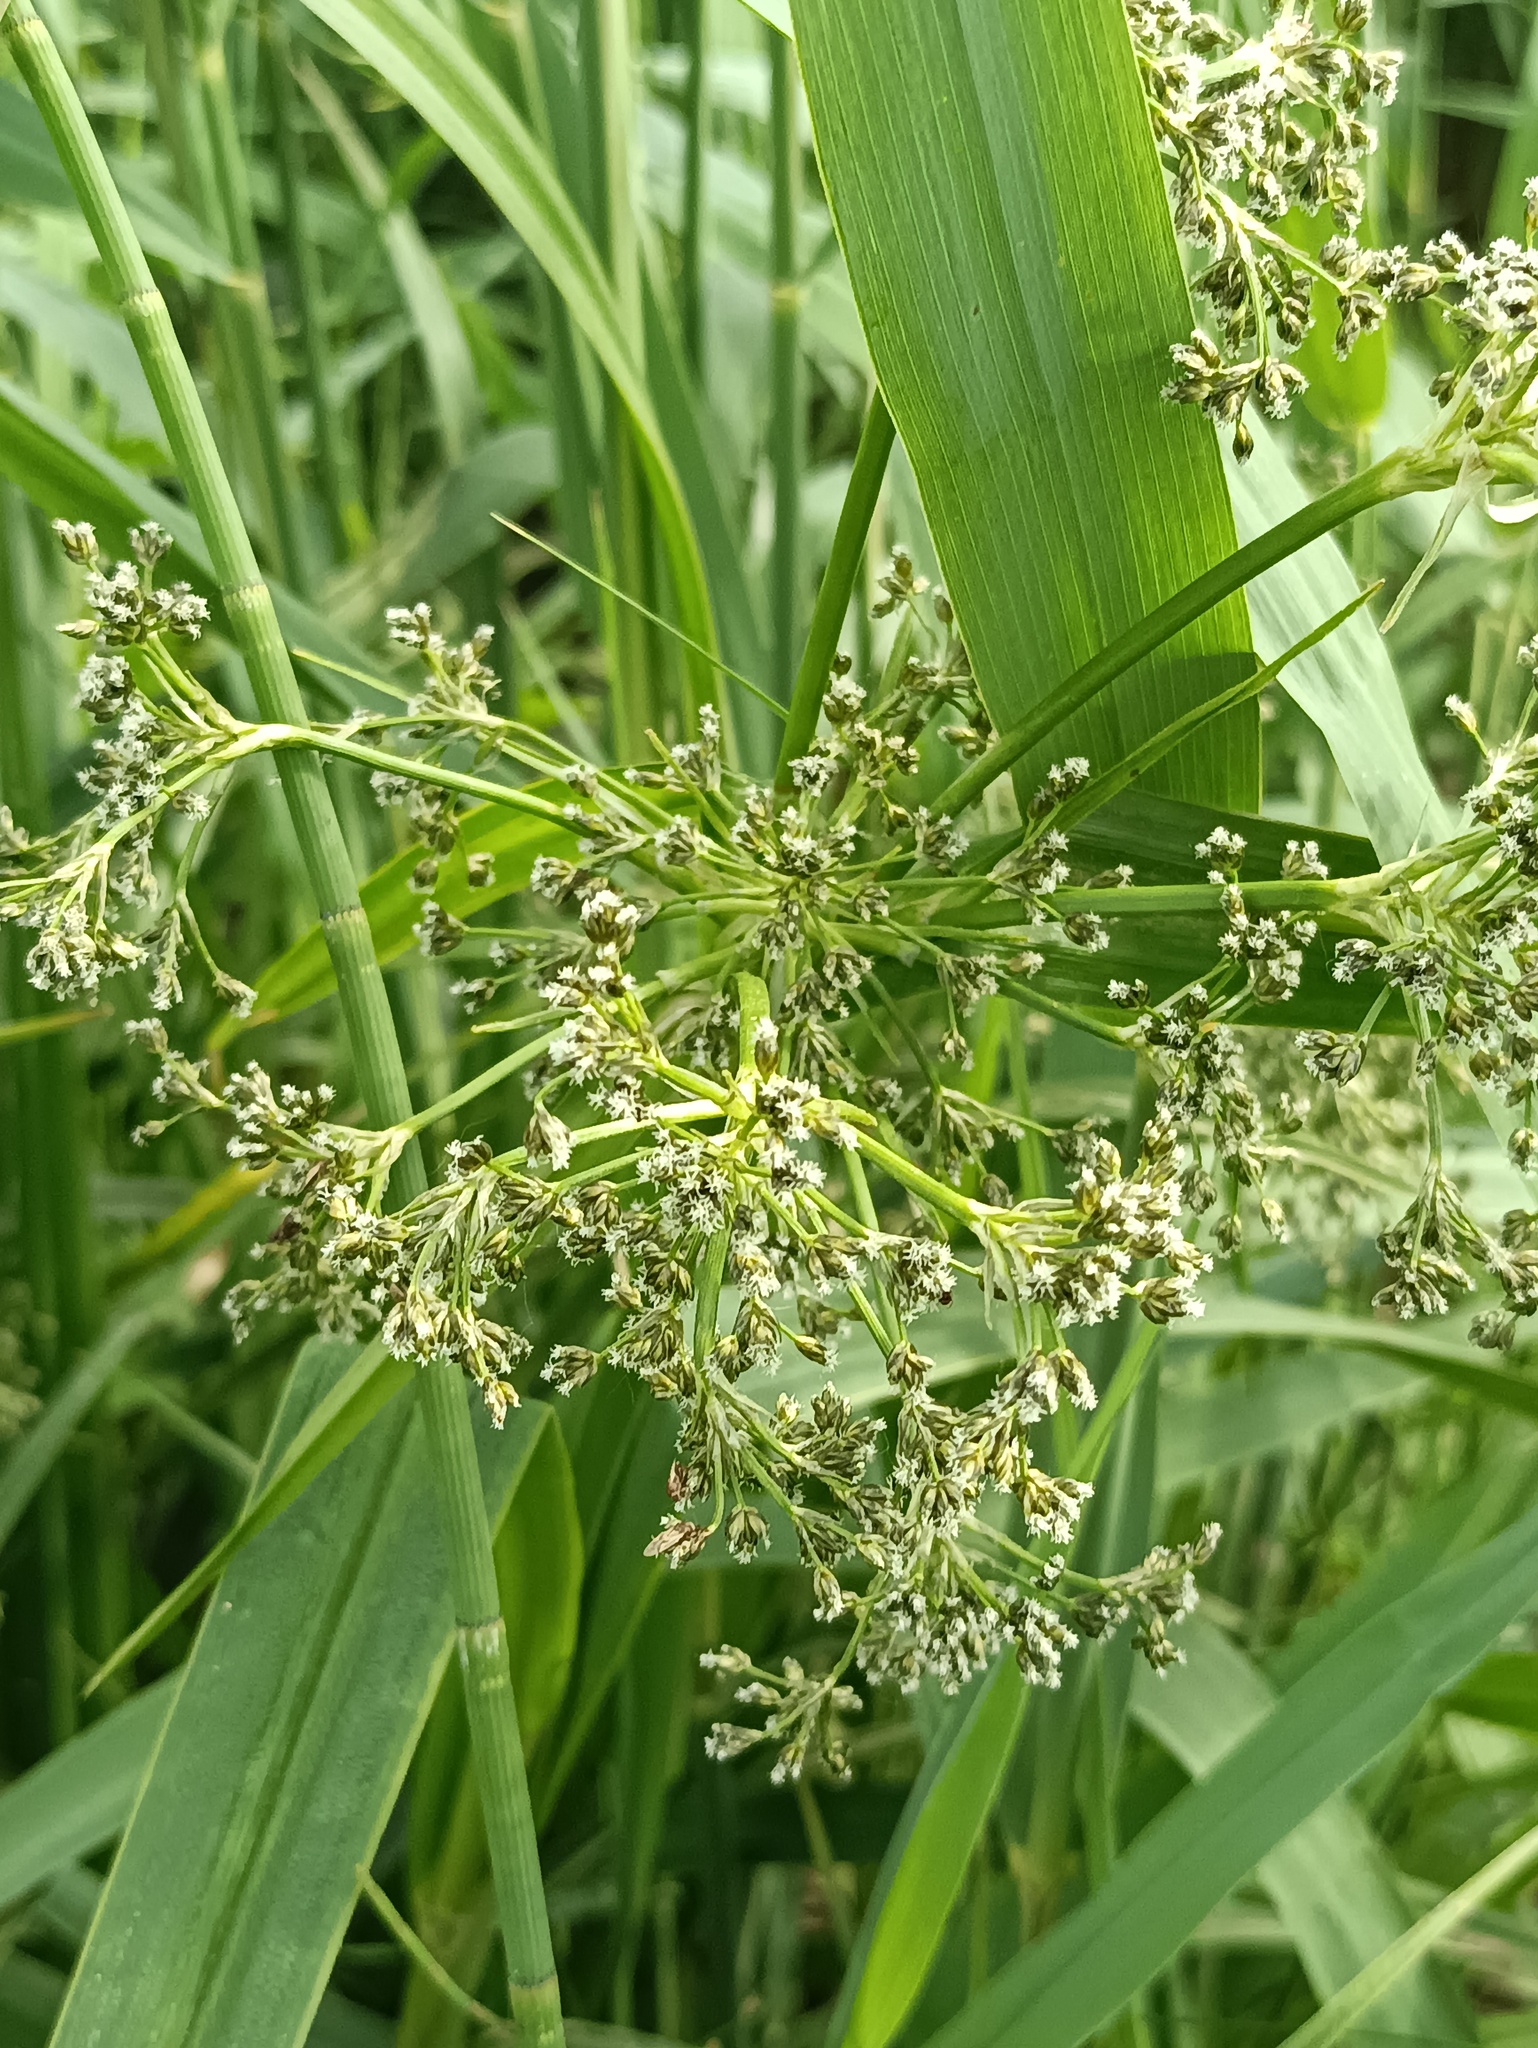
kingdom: Plantae
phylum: Tracheophyta
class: Liliopsida
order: Poales
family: Cyperaceae
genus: Scirpus
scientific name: Scirpus sylvaticus
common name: Wood club-rush
